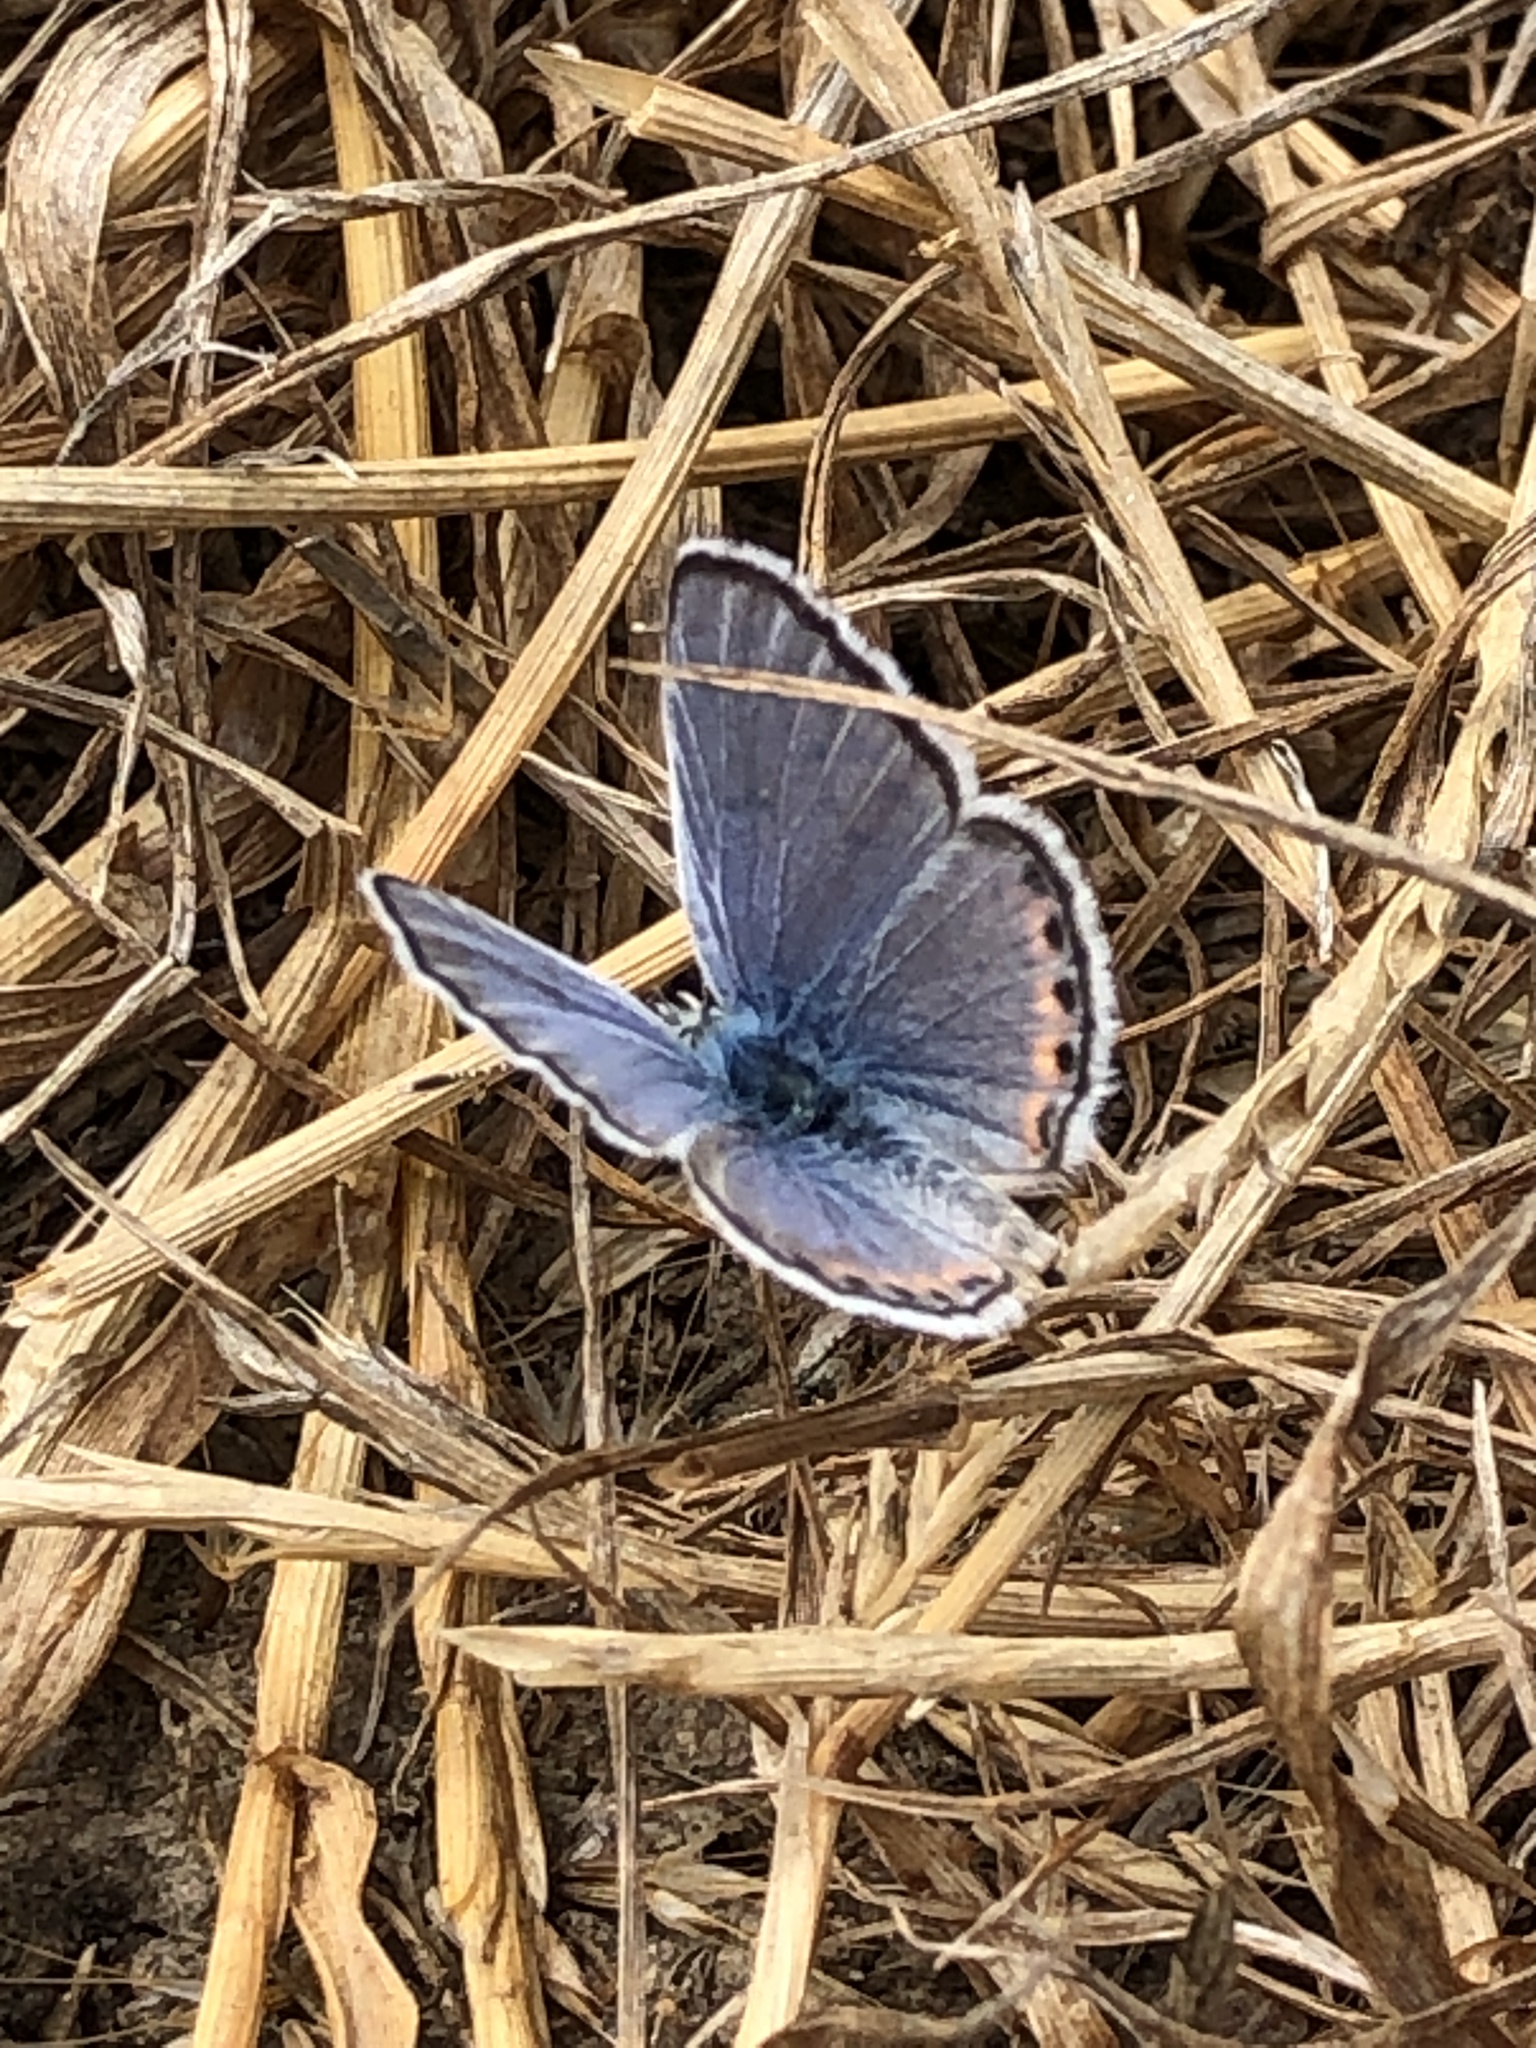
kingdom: Animalia
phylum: Arthropoda
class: Insecta
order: Lepidoptera
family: Lycaenidae
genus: Icaricia
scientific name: Icaricia acmon
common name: Acmon blue
